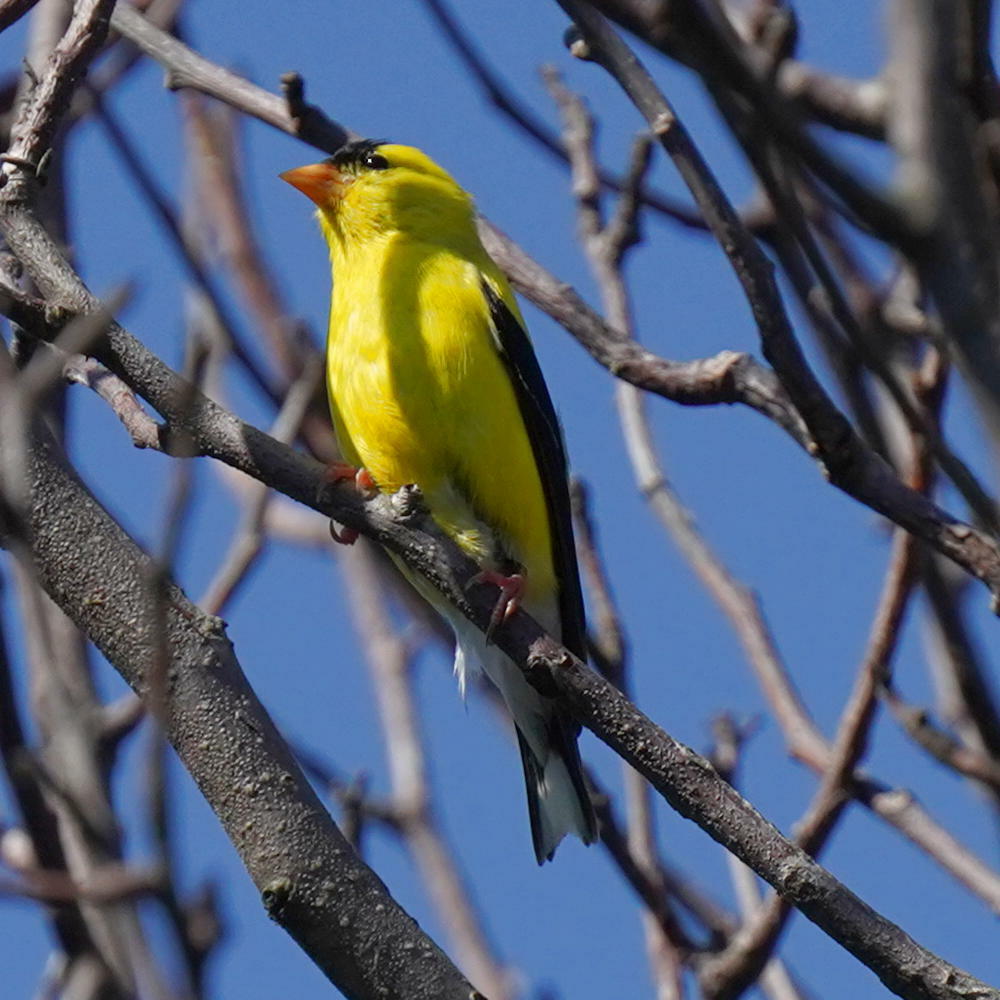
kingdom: Animalia
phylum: Chordata
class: Aves
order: Passeriformes
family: Fringillidae
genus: Spinus
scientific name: Spinus tristis
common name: American goldfinch
